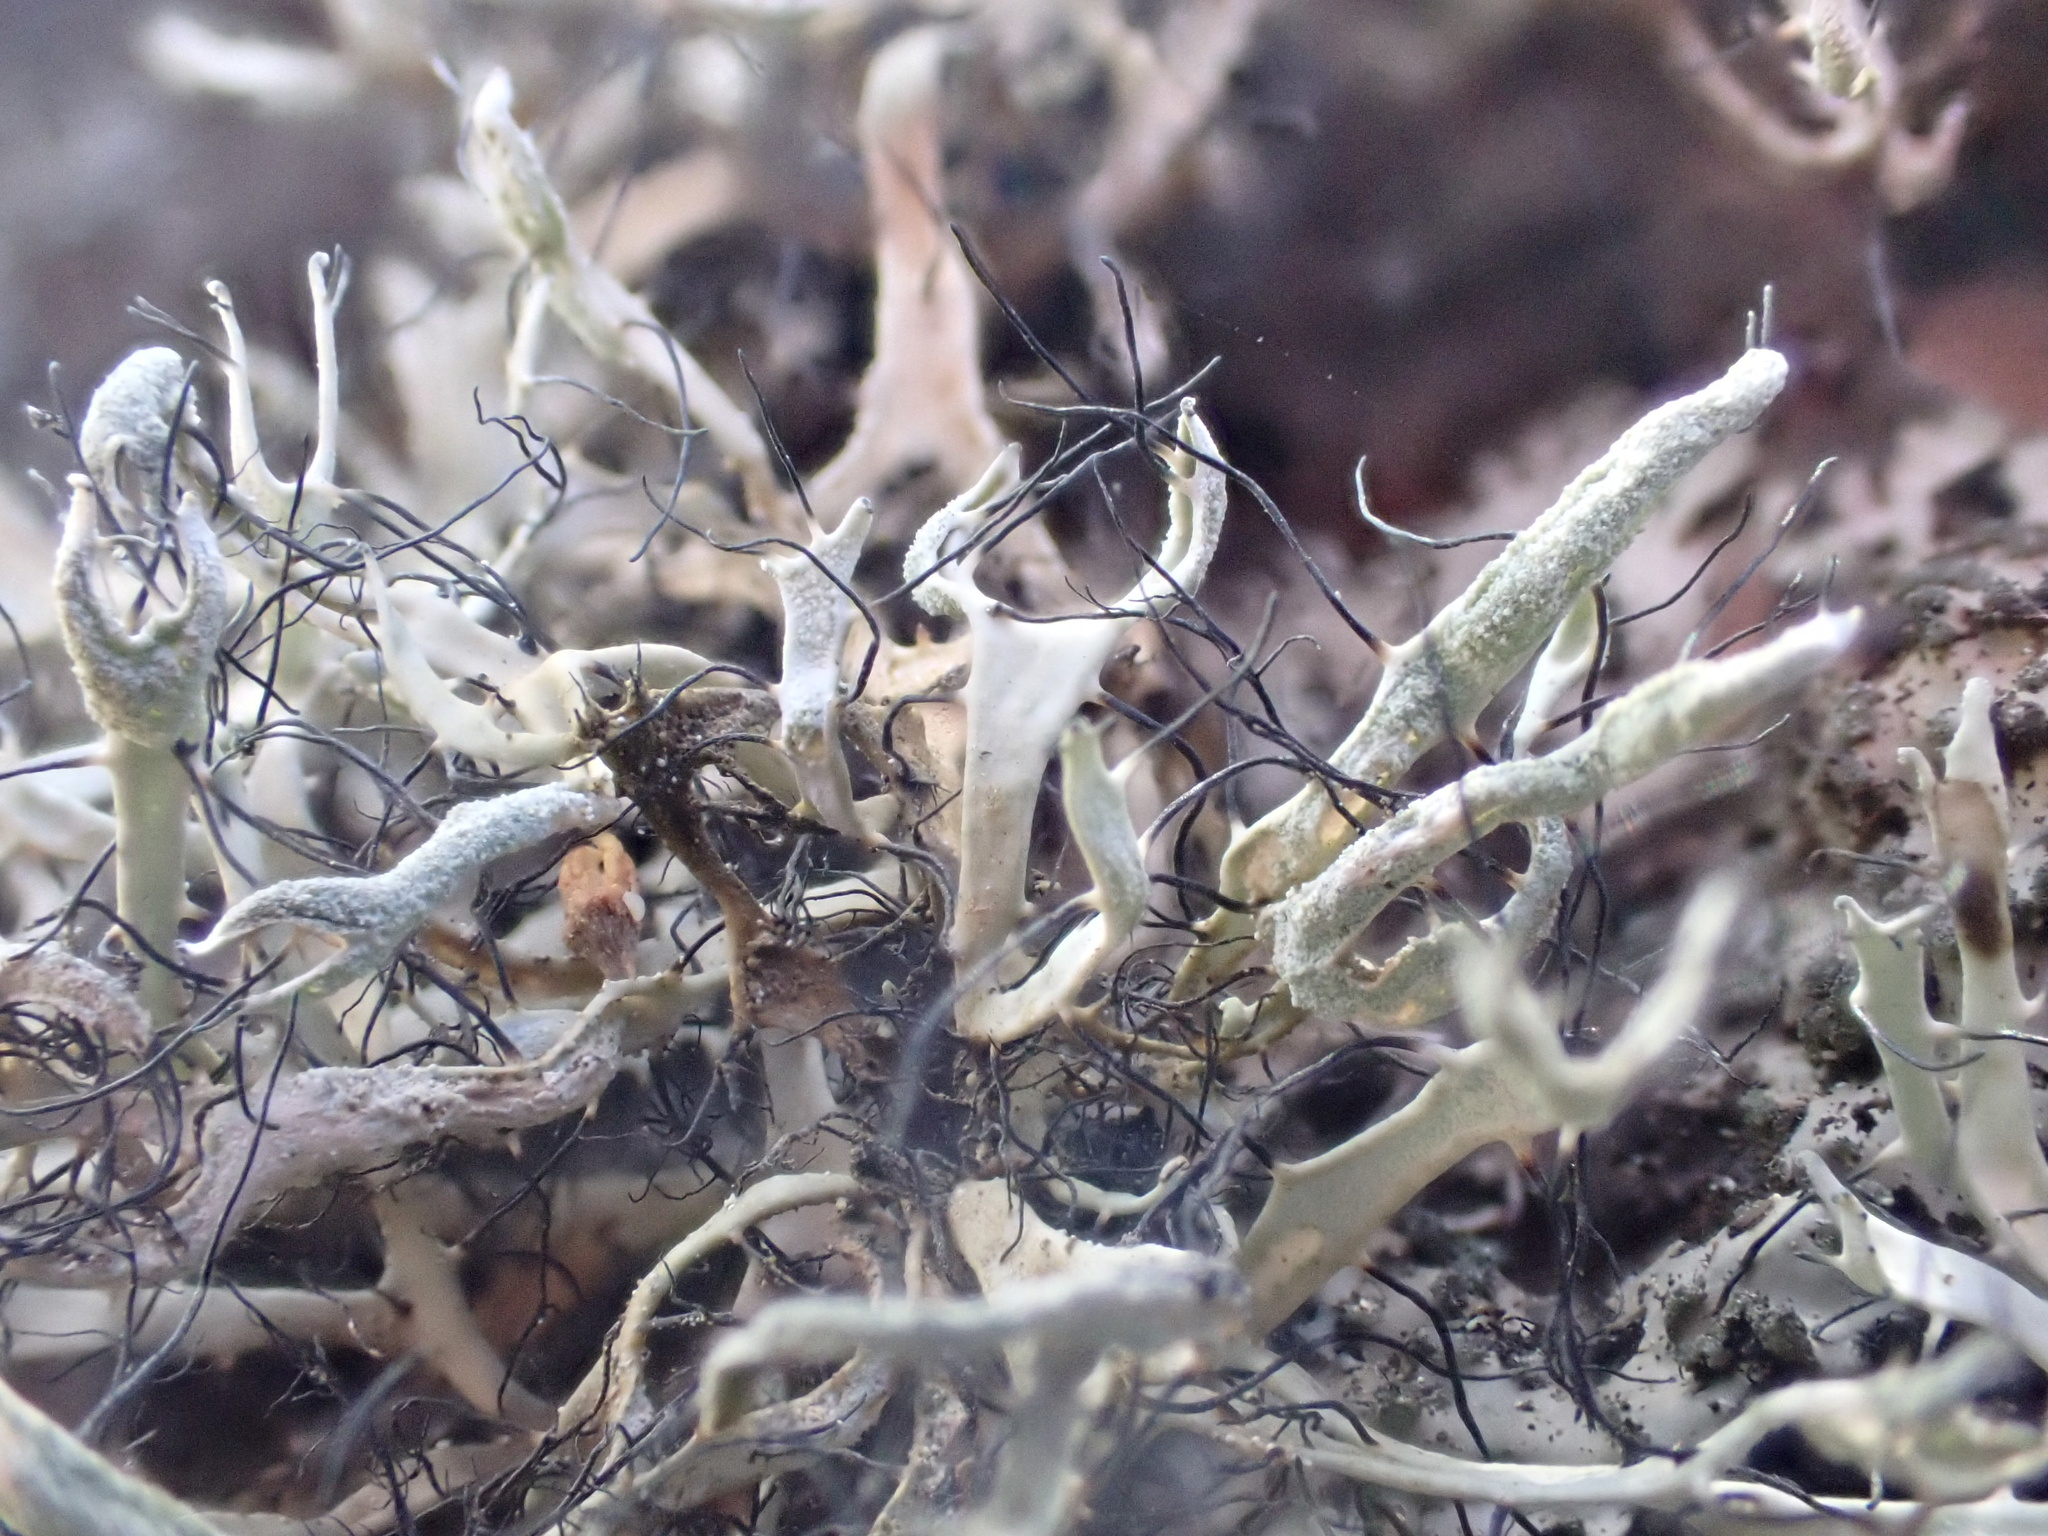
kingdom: Fungi
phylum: Ascomycota
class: Lecanoromycetes
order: Caliciales
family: Physciaceae
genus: Leucodermia
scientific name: Leucodermia leucomelos
